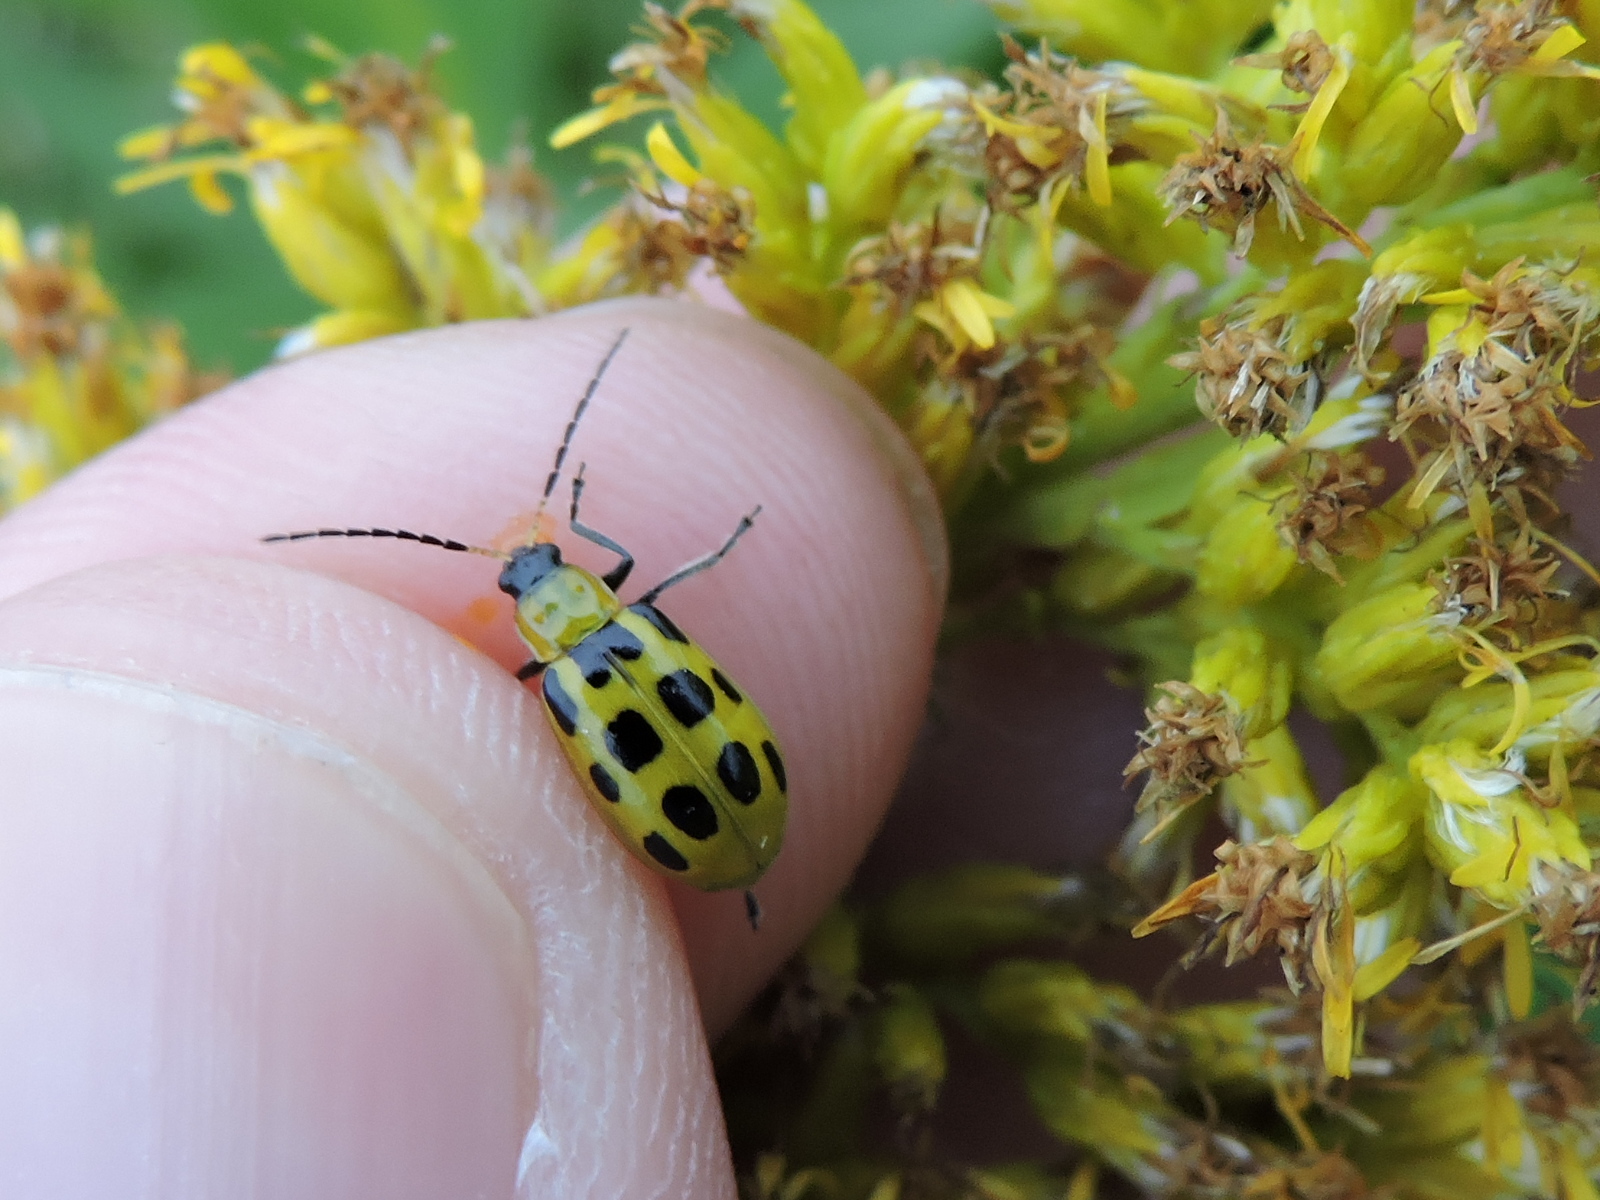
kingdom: Animalia
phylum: Arthropoda
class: Insecta
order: Coleoptera
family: Chrysomelidae
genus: Diabrotica
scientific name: Diabrotica undecimpunctata
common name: Spotted cucumber beetle
